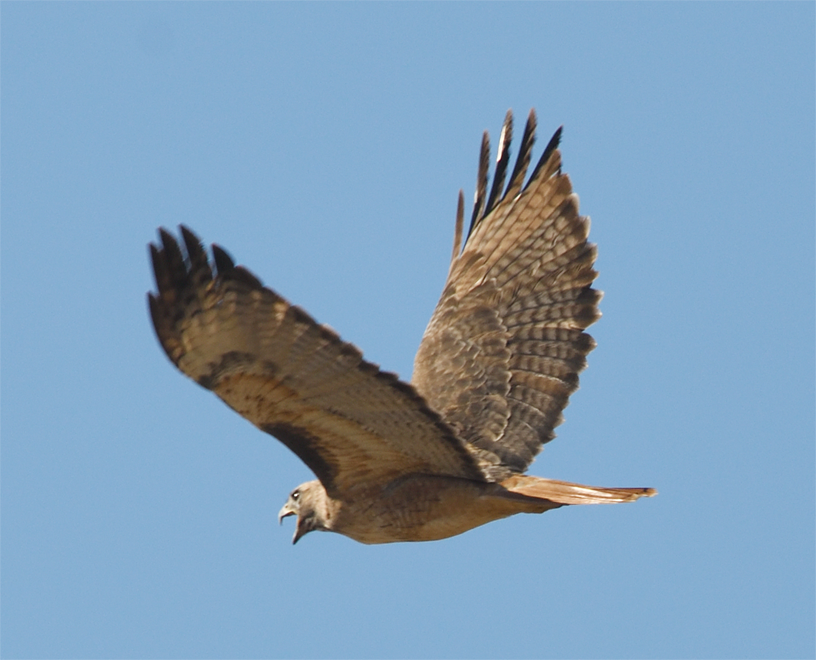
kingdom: Animalia
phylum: Chordata
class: Aves
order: Accipitriformes
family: Accipitridae
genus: Buteo
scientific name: Buteo jamaicensis
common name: Red-tailed hawk
